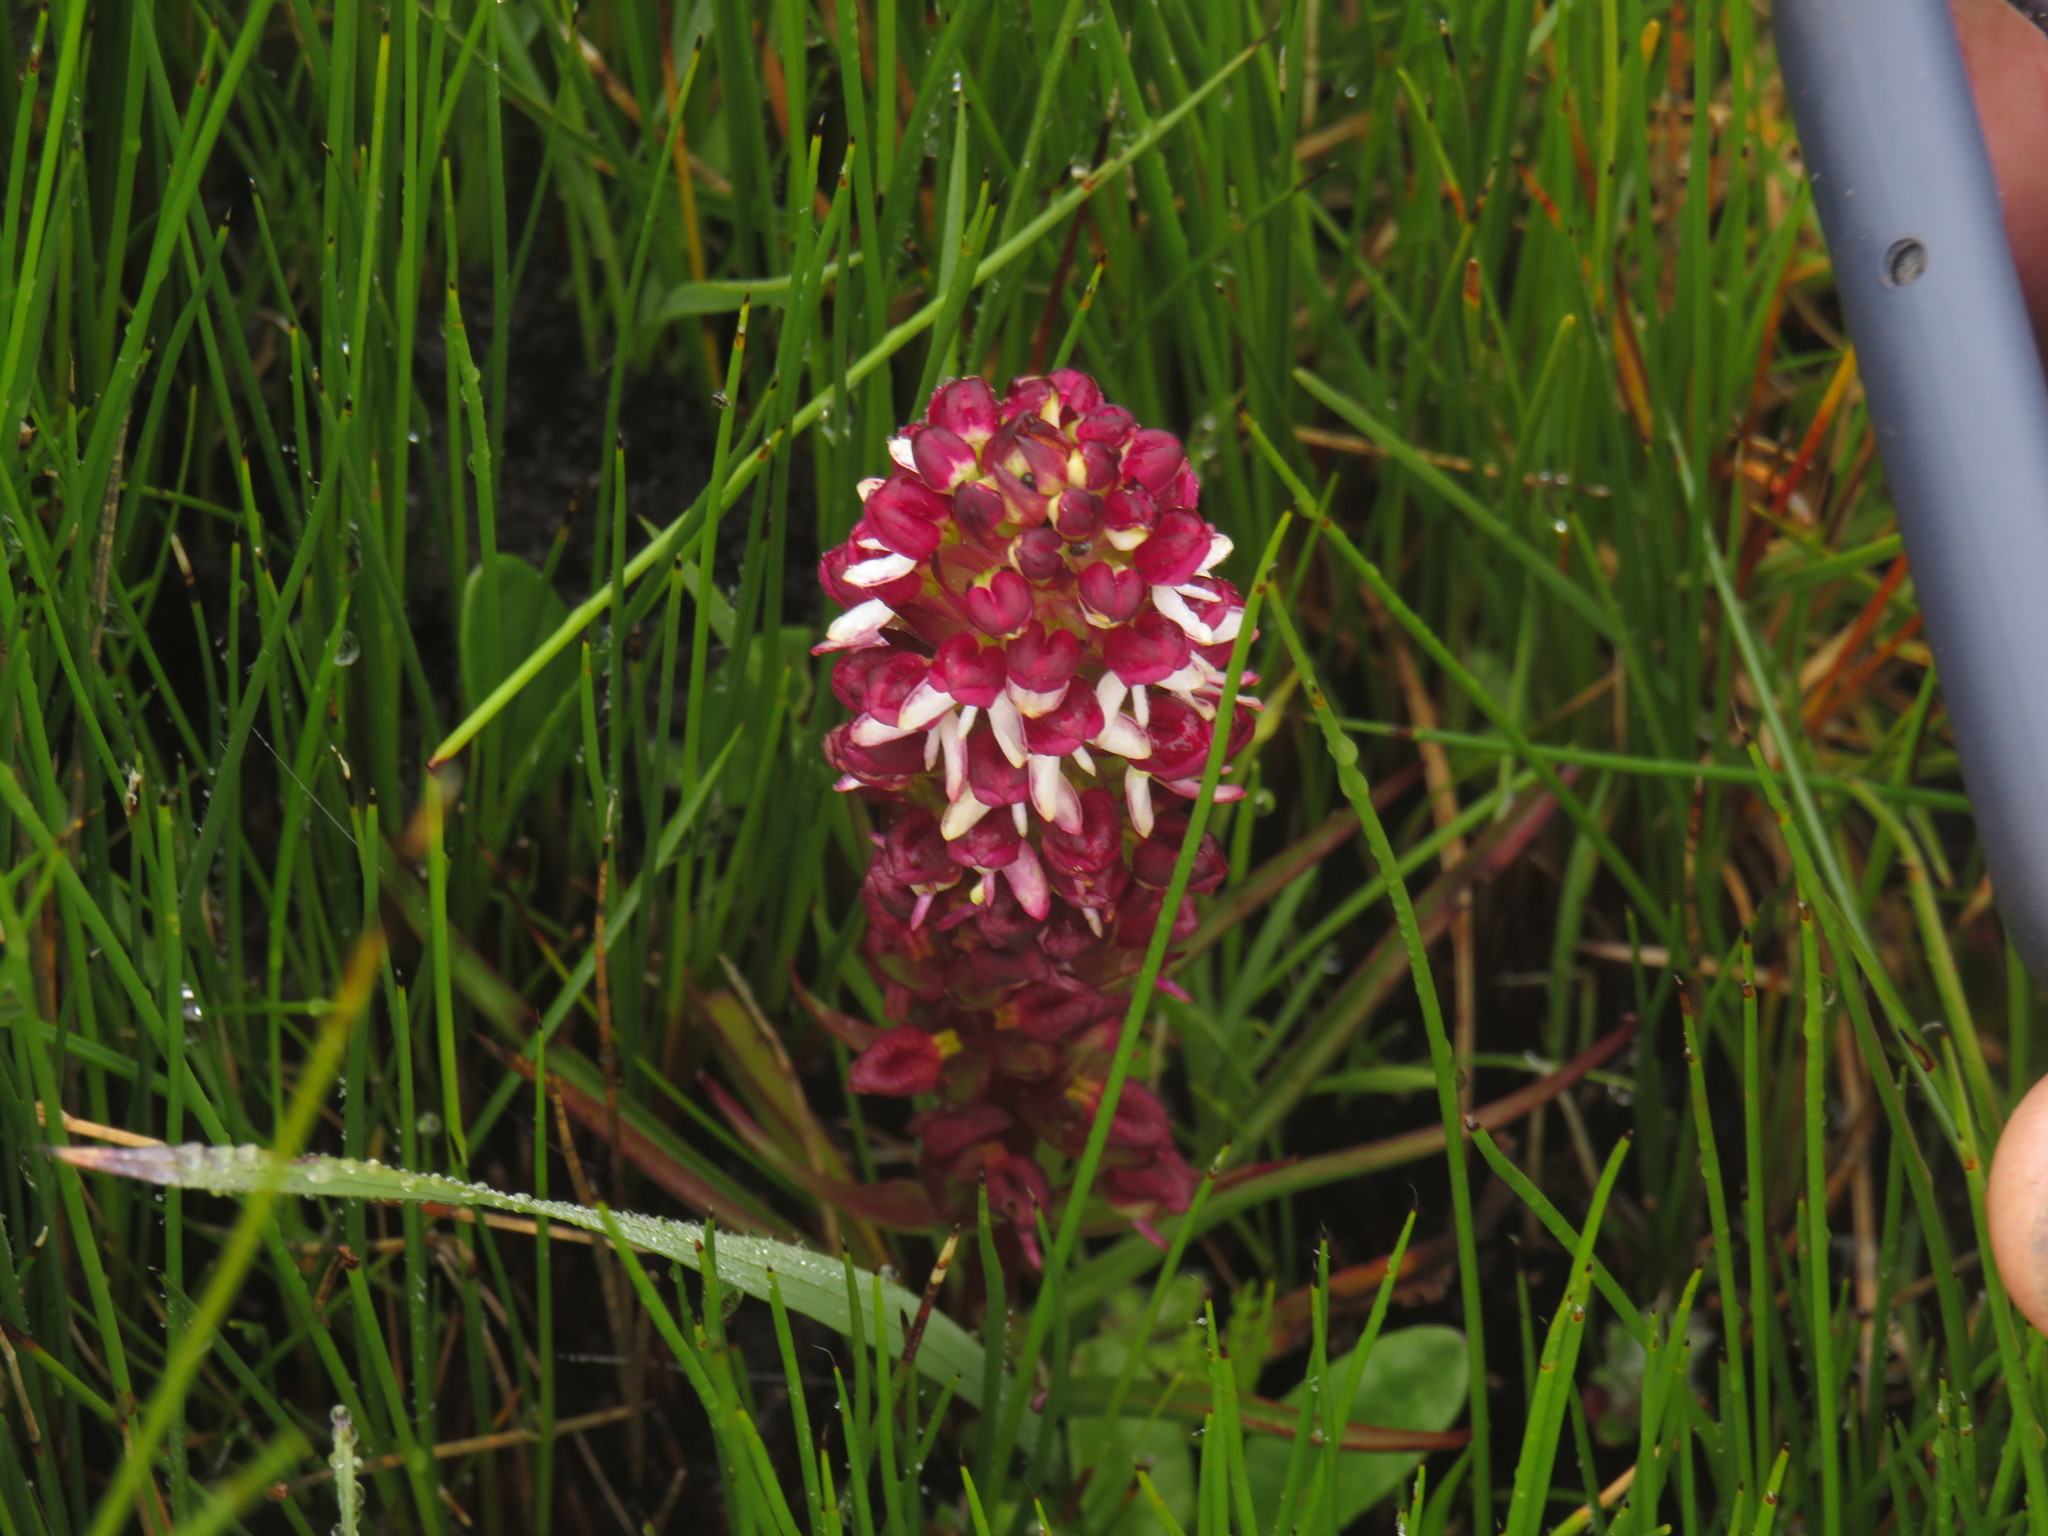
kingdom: Plantae
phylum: Tracheophyta
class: Liliopsida
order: Asparagales
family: Orchidaceae
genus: Disa
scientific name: Disa albomagentea
